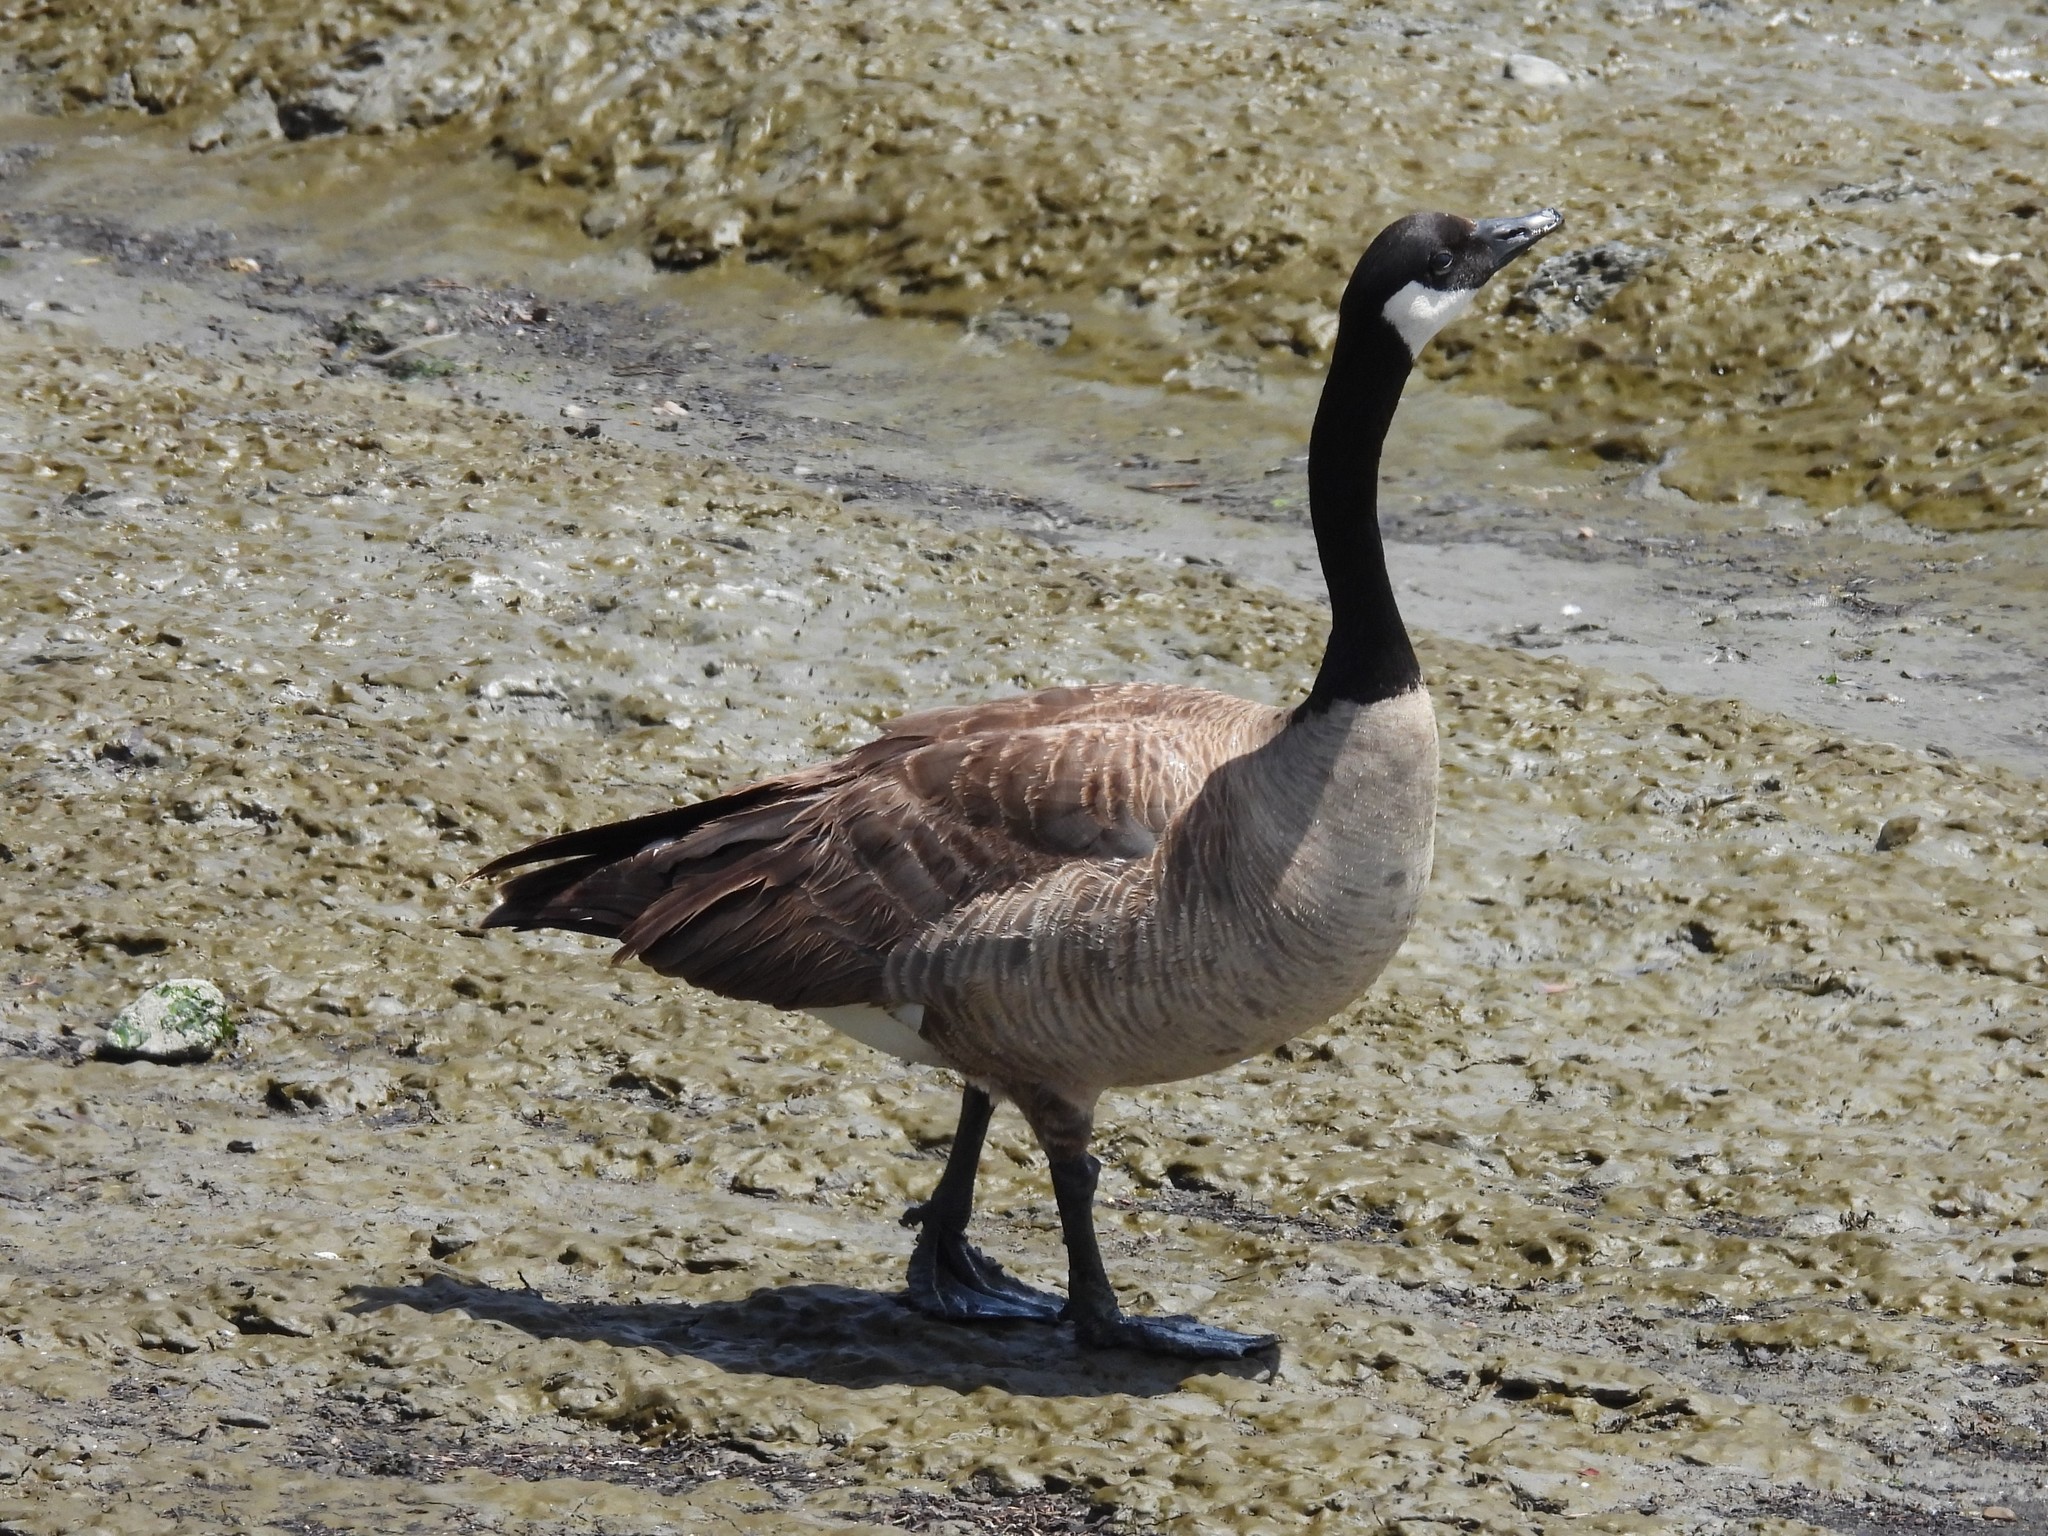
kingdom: Animalia
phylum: Chordata
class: Aves
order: Anseriformes
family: Anatidae
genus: Branta
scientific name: Branta canadensis
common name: Canada goose
